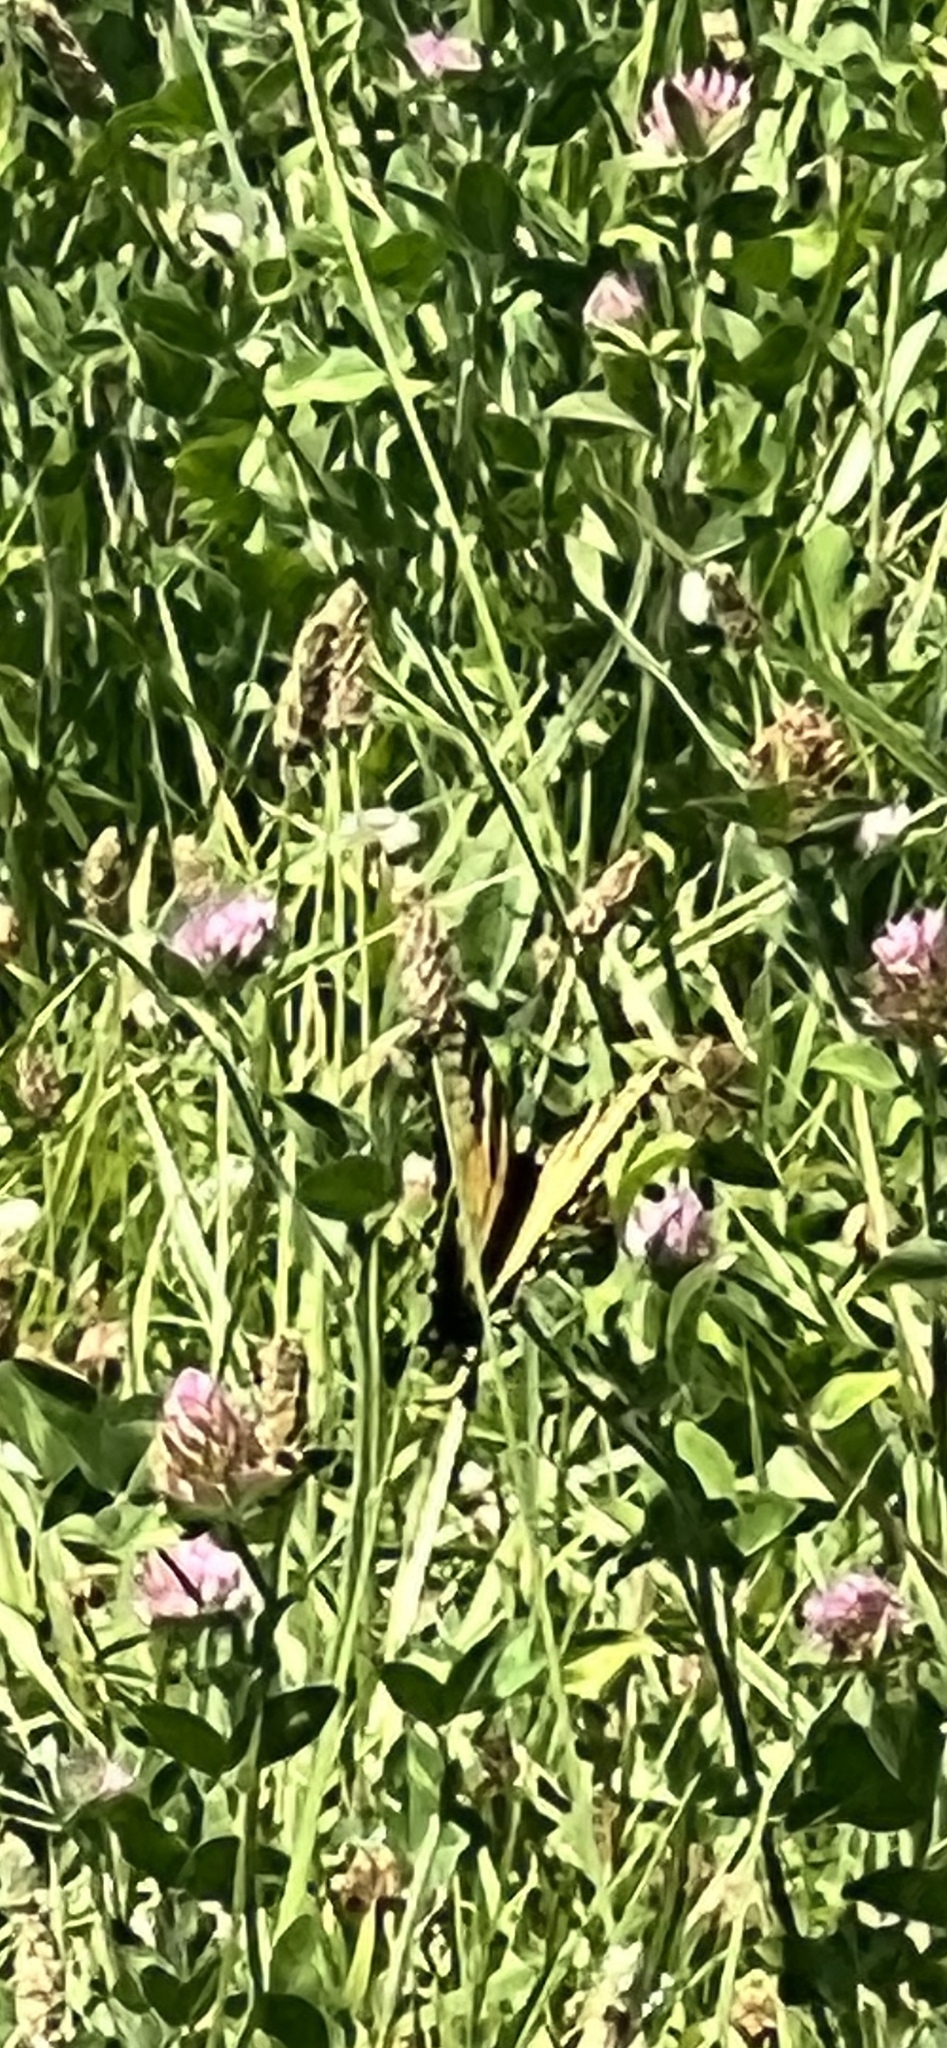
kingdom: Animalia
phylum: Arthropoda
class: Insecta
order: Lepidoptera
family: Papilionidae
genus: Papilio
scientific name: Papilio glaucus
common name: Tiger swallowtail
